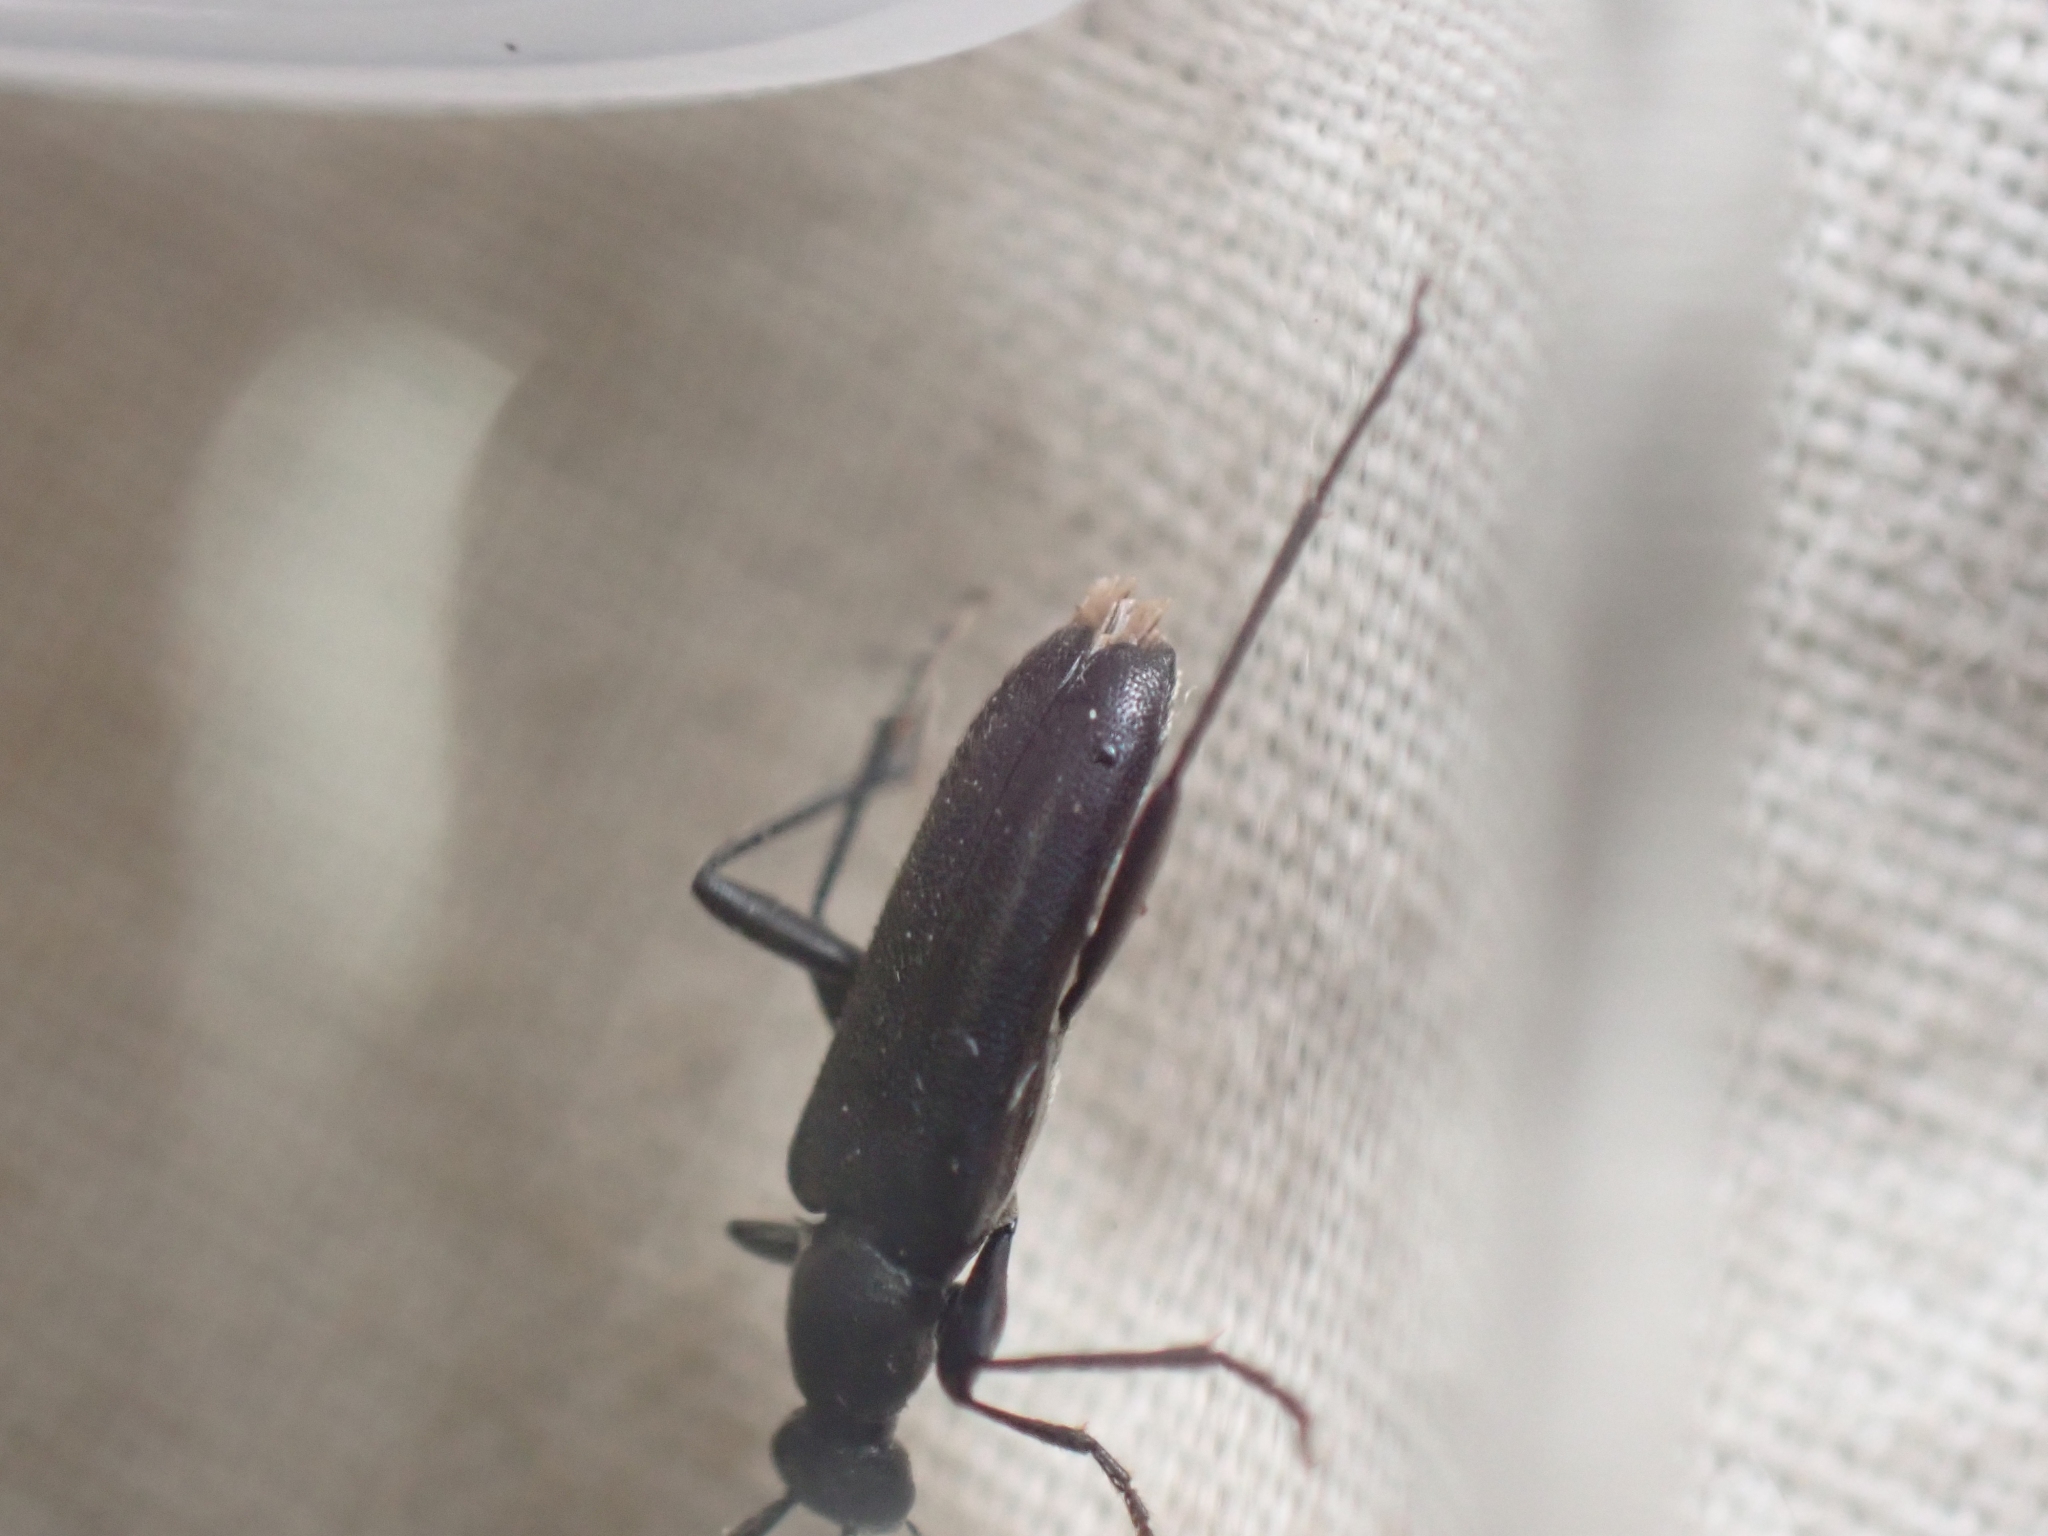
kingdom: Animalia
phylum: Arthropoda
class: Insecta
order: Coleoptera
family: Cerambycidae
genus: Grammoptera
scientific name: Grammoptera subargentata
